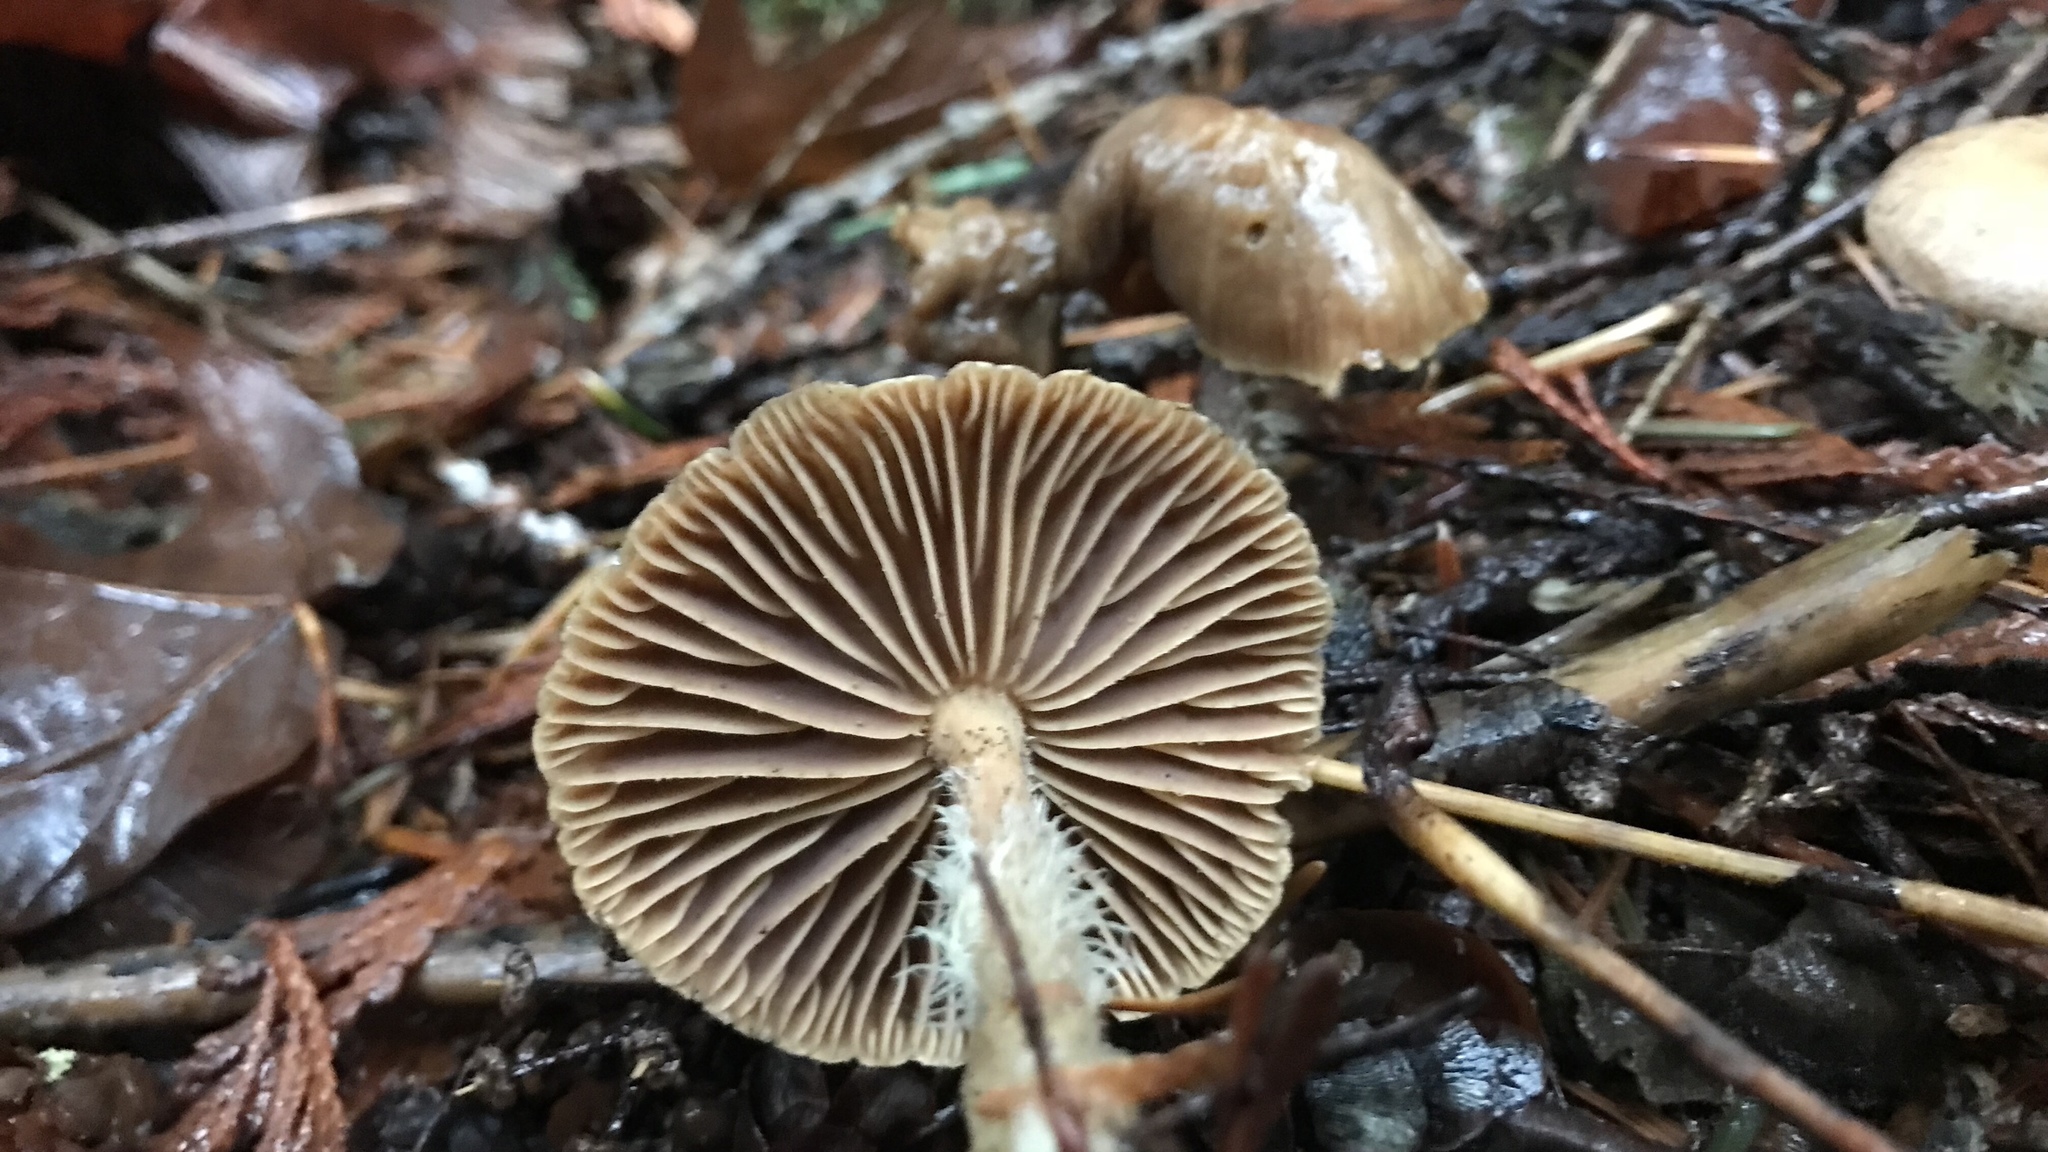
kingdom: Fungi
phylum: Basidiomycota
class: Agaricomycetes
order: Agaricales
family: Omphalotaceae
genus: Collybiopsis
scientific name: Collybiopsis peronata
